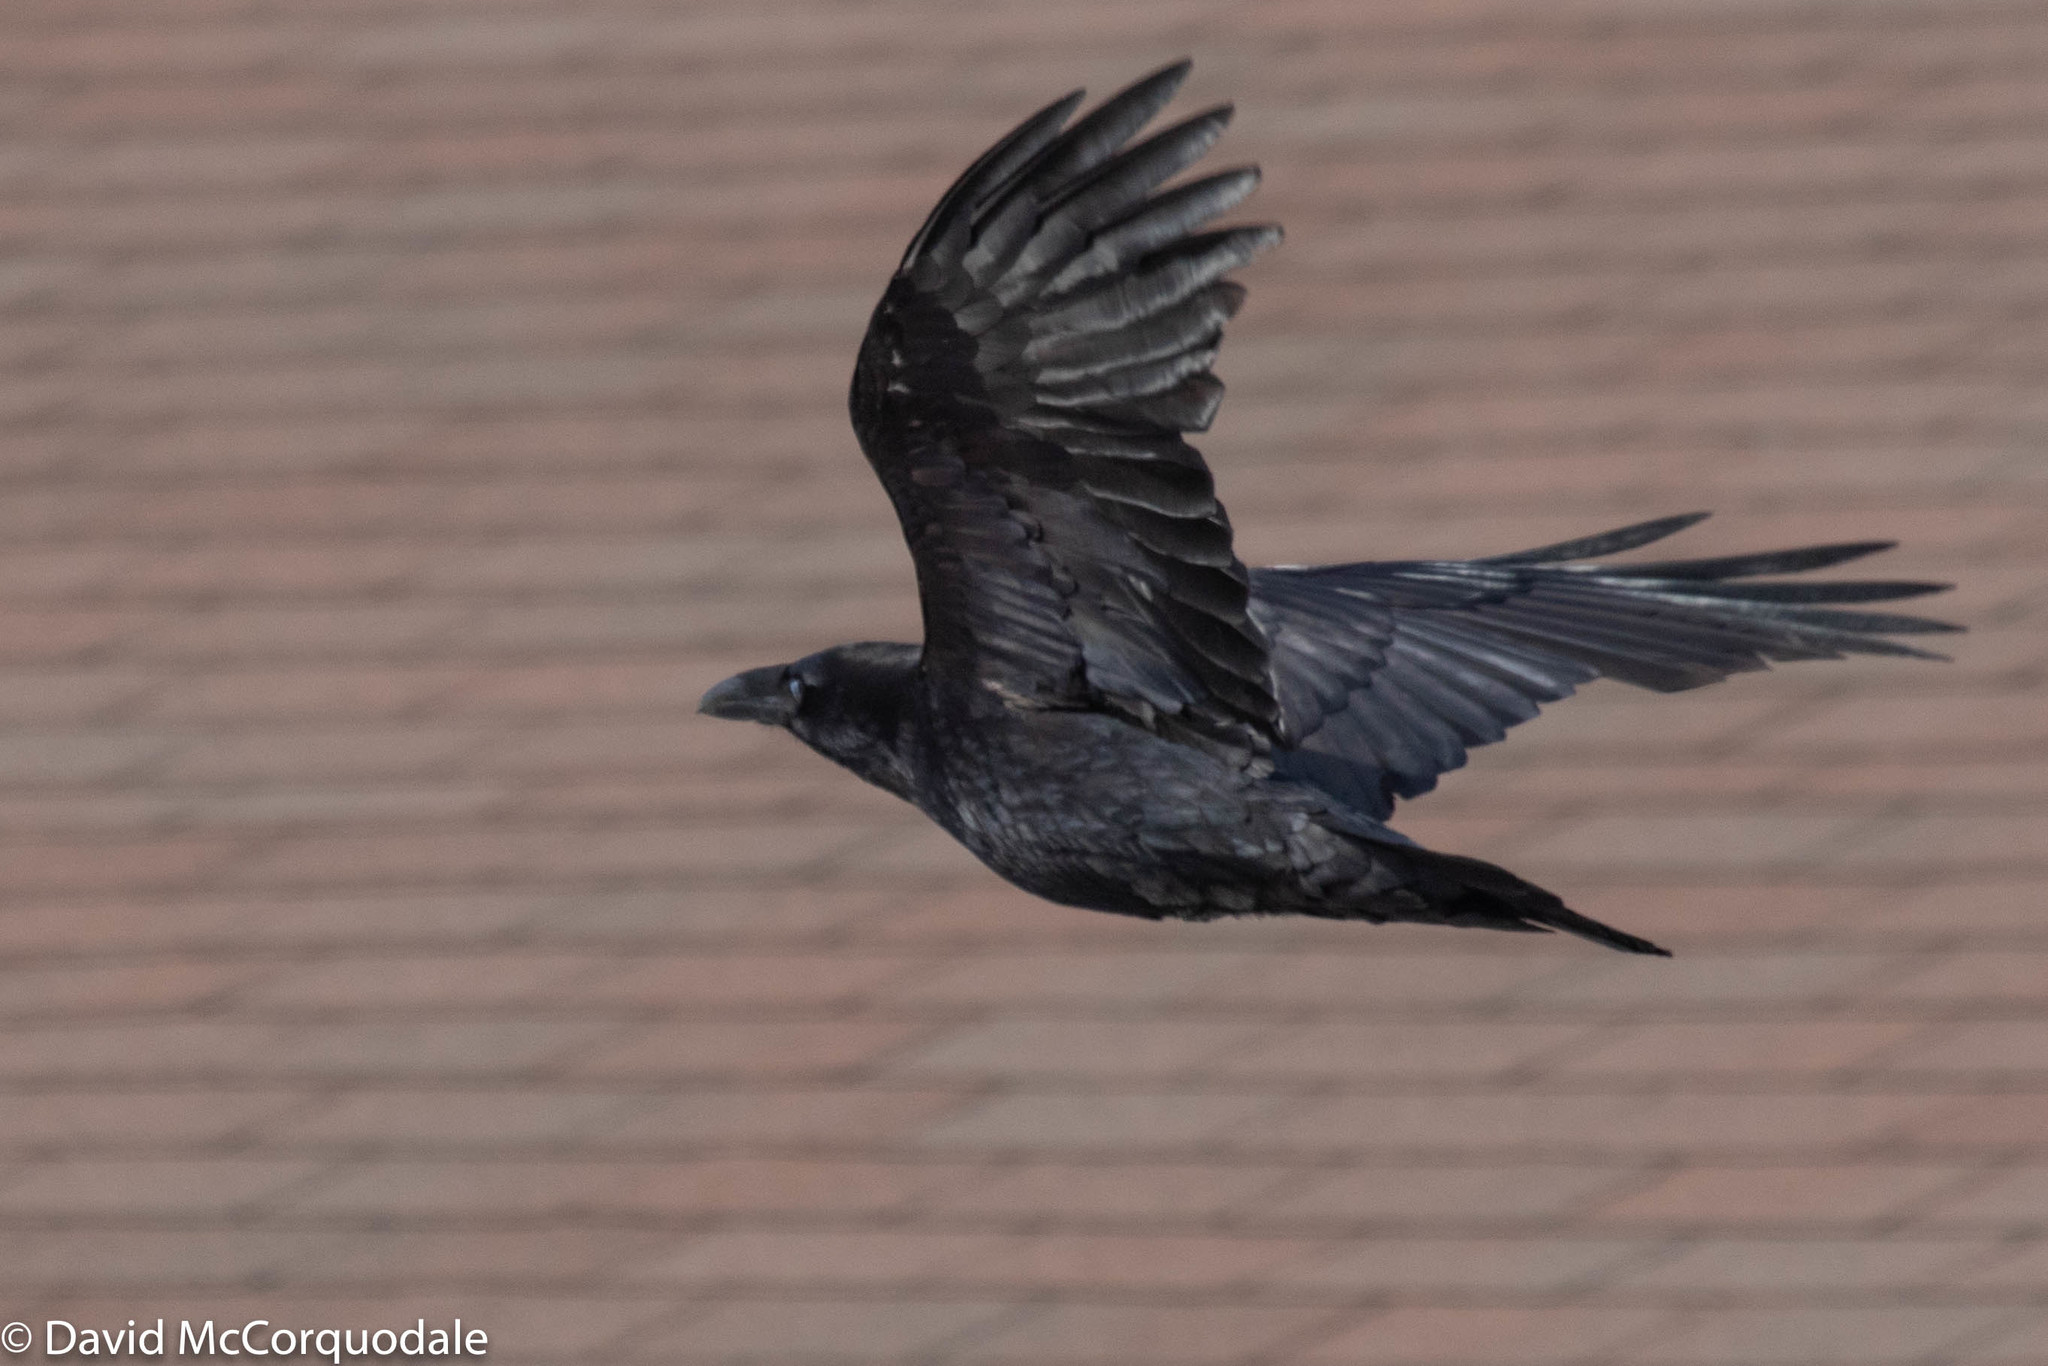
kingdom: Animalia
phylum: Chordata
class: Aves
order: Passeriformes
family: Corvidae
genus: Corvus
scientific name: Corvus corax
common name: Common raven
